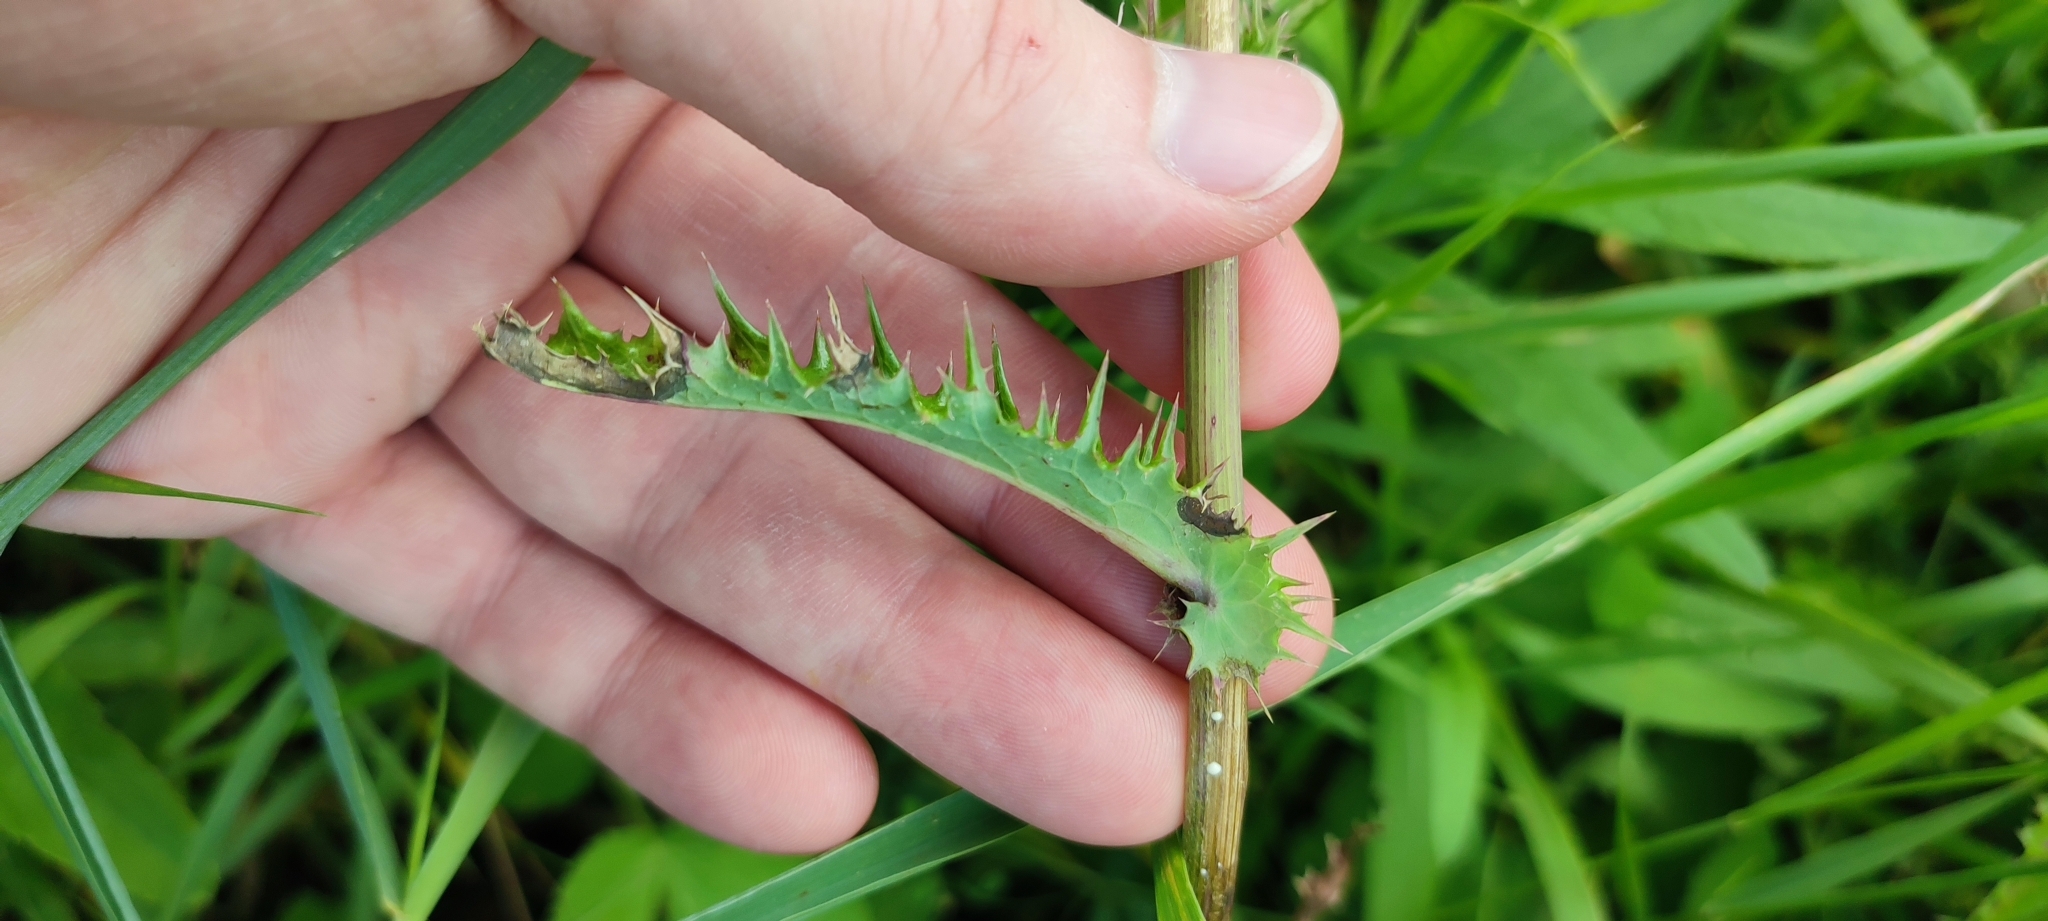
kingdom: Plantae
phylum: Tracheophyta
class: Magnoliopsida
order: Asterales
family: Asteraceae
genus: Sonchus
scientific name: Sonchus asper
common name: Prickly sow-thistle
